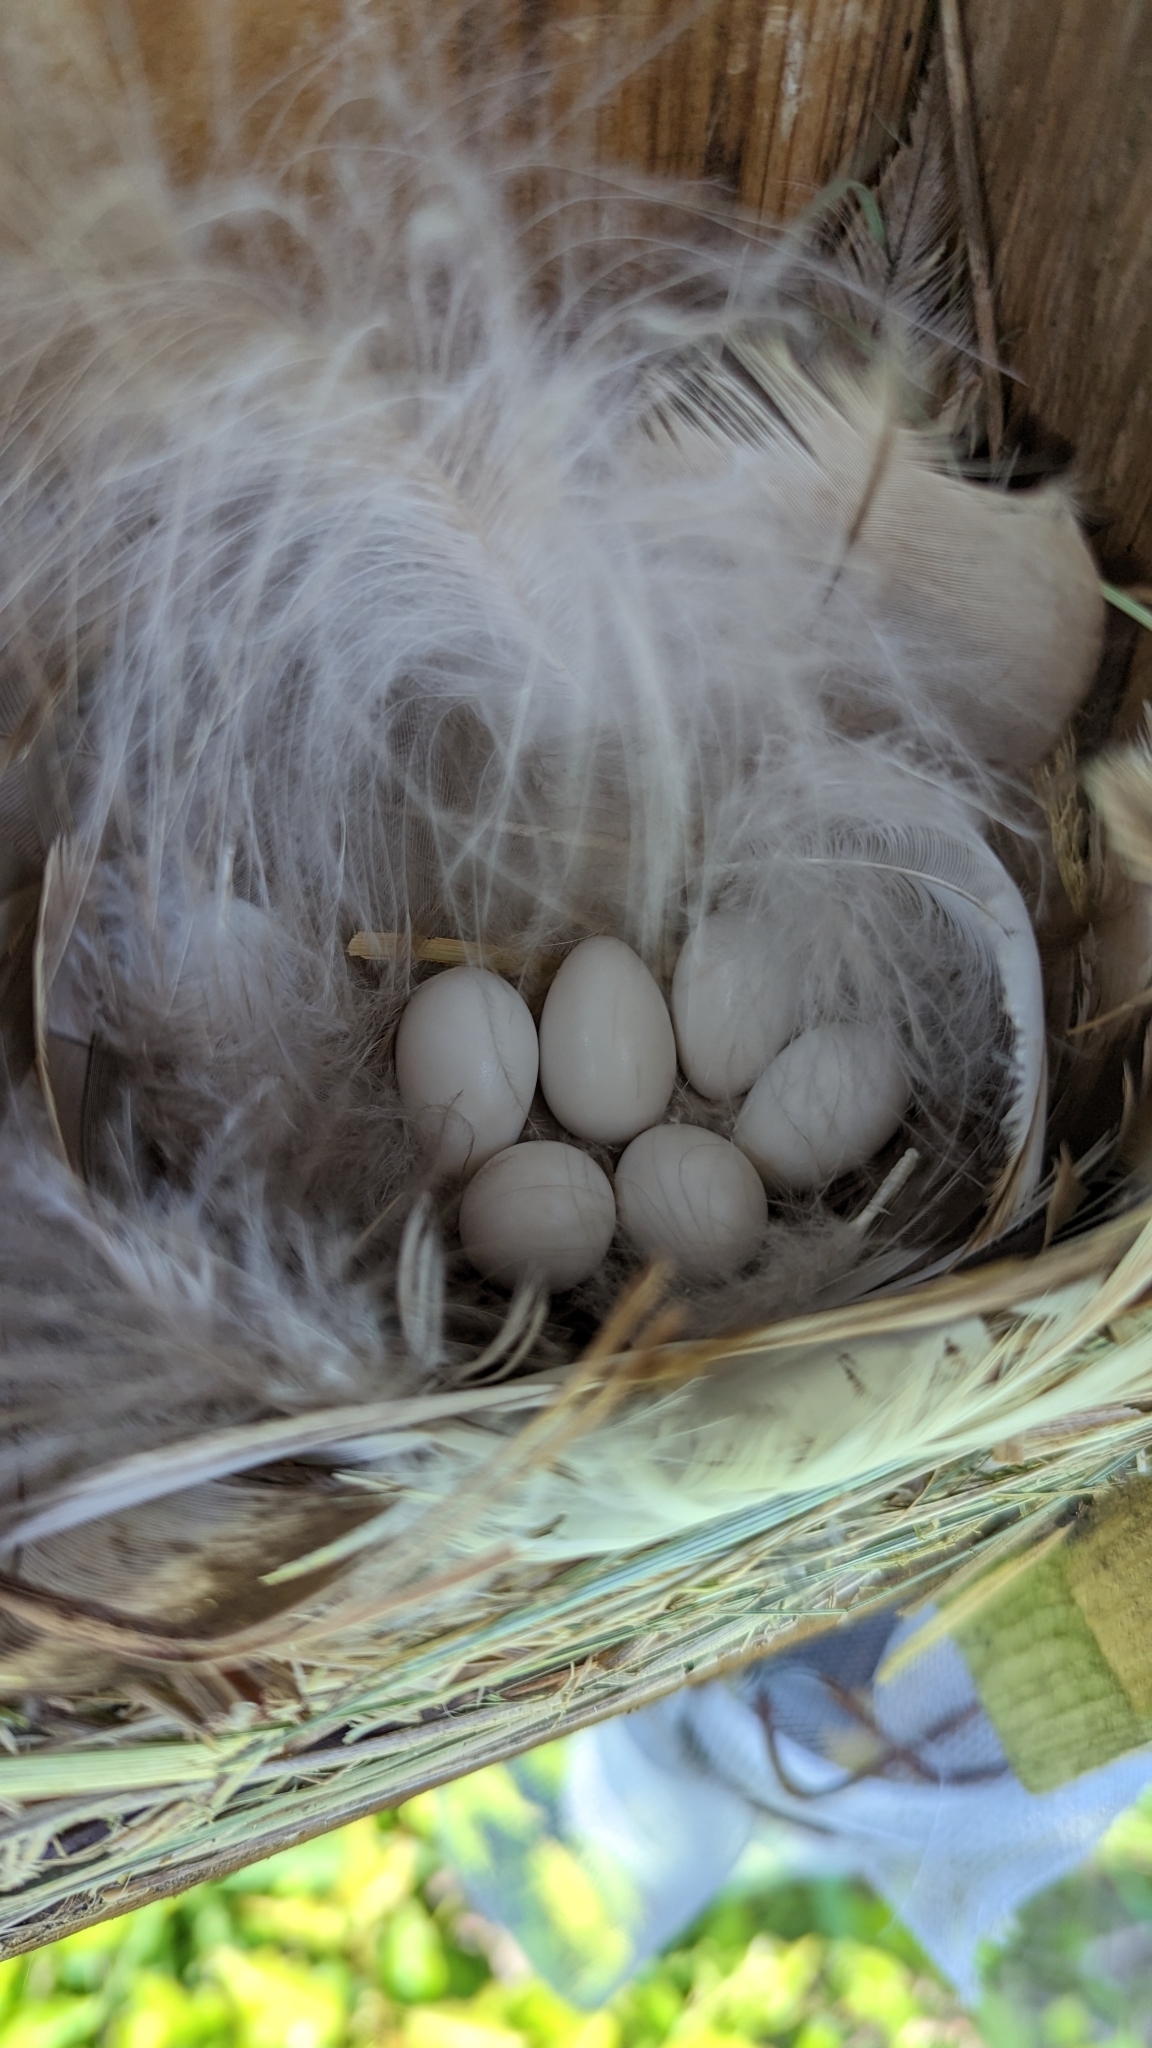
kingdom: Animalia
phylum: Chordata
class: Aves
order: Passeriformes
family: Hirundinidae
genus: Tachycineta
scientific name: Tachycineta bicolor
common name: Tree swallow
